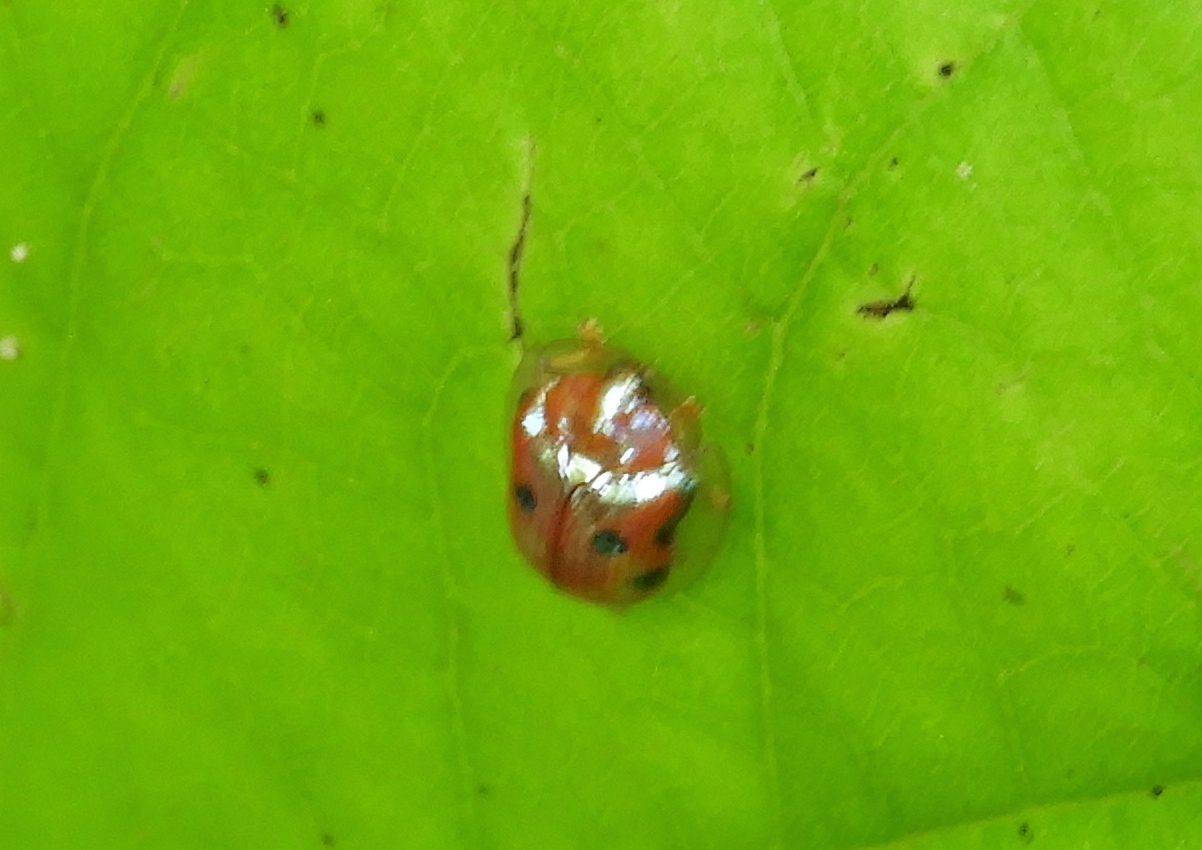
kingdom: Animalia
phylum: Arthropoda
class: Insecta
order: Coleoptera
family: Chrysomelidae
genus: Charidotella
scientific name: Charidotella sexpunctata
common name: Golden tortoise beetle
